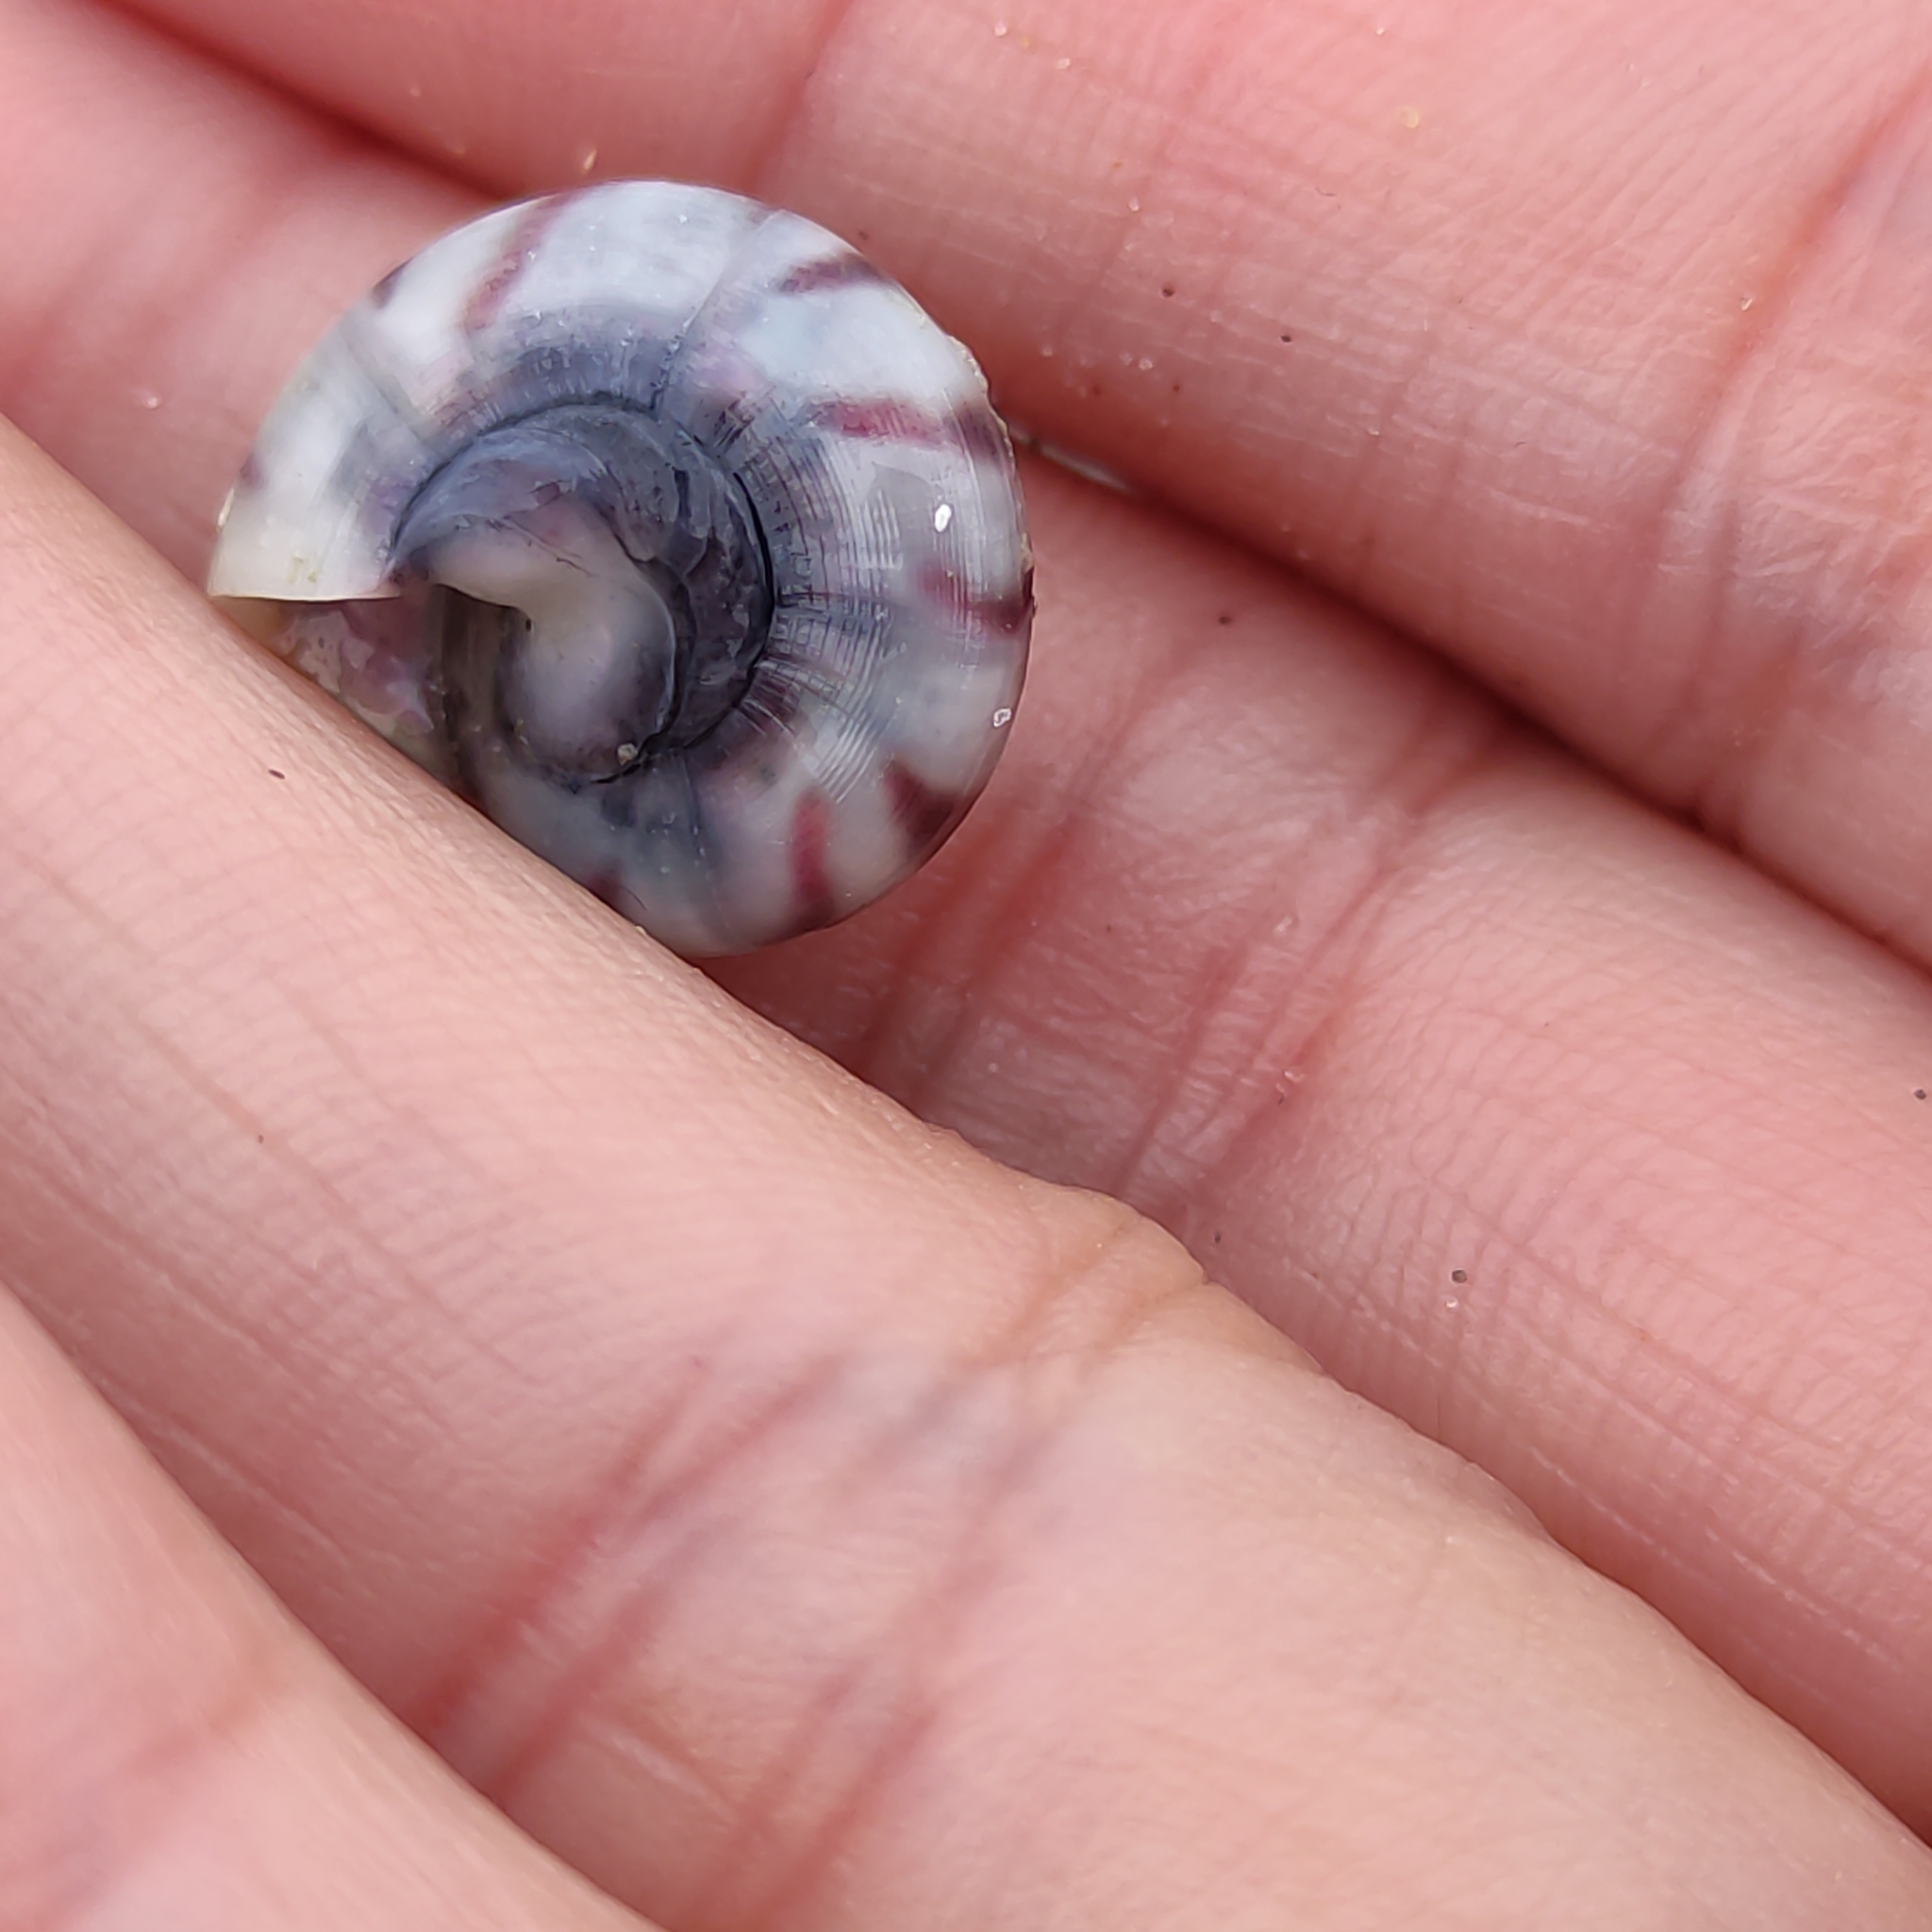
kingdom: Animalia
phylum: Mollusca
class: Gastropoda
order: Trochida
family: Trochidae
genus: Zethalia
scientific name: Zethalia zelandica
